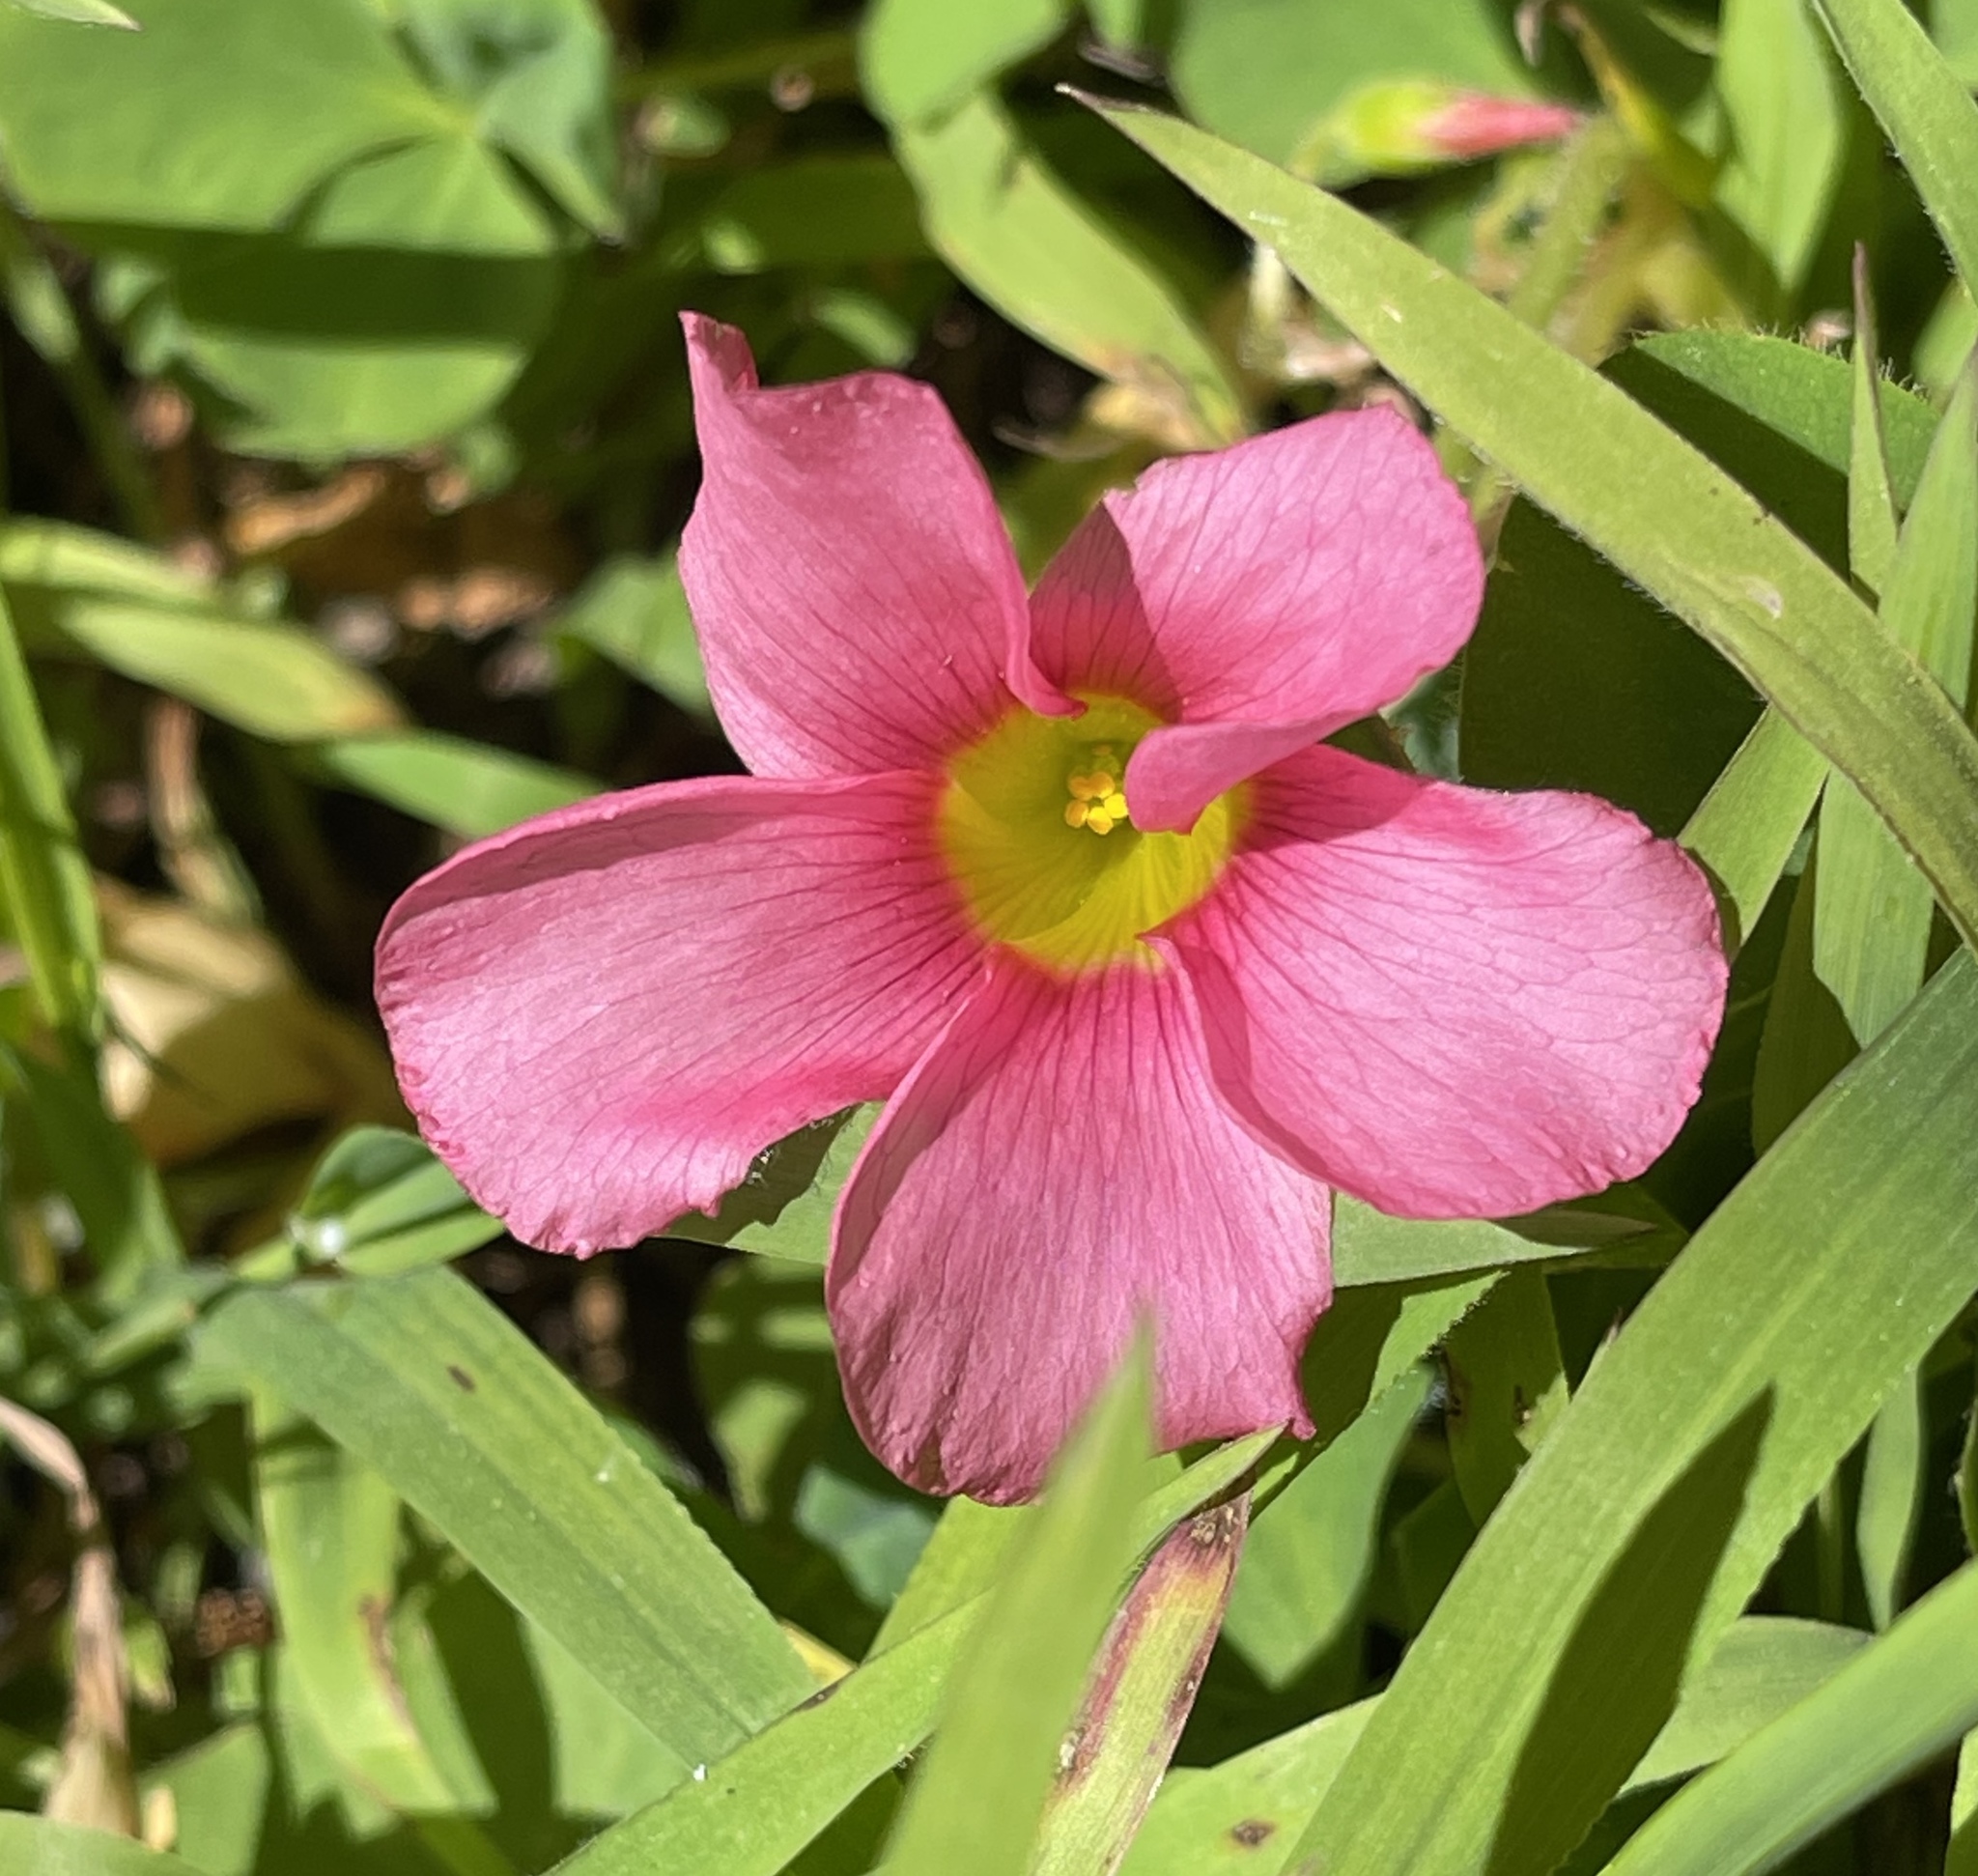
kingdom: Plantae
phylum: Tracheophyta
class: Magnoliopsida
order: Oxalidales
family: Oxalidaceae
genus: Oxalis
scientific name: Oxalis purpurea
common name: Purple woodsorrel
